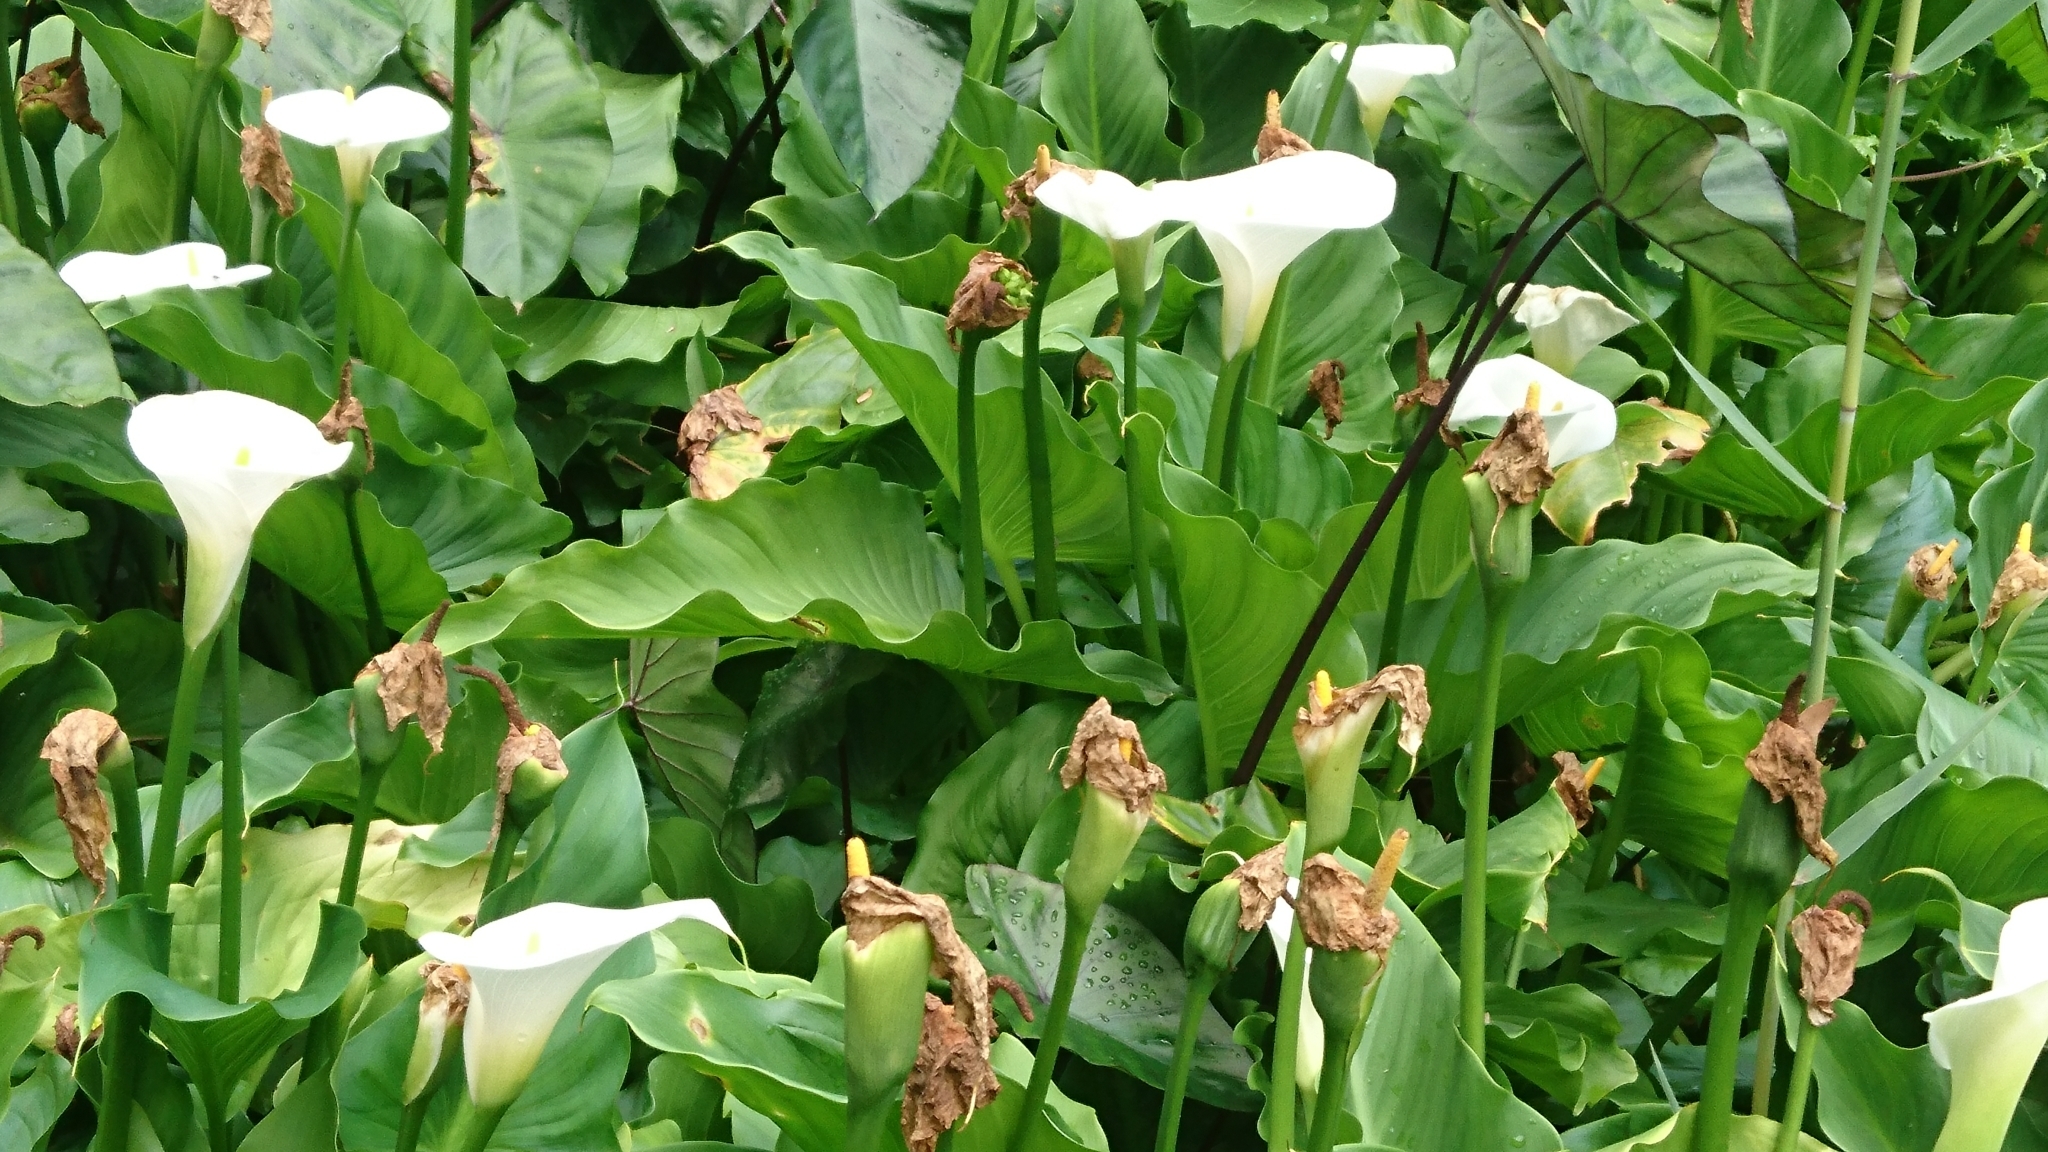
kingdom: Plantae
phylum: Tracheophyta
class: Liliopsida
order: Alismatales
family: Araceae
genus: Zantedeschia
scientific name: Zantedeschia aethiopica
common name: Altar-lily
